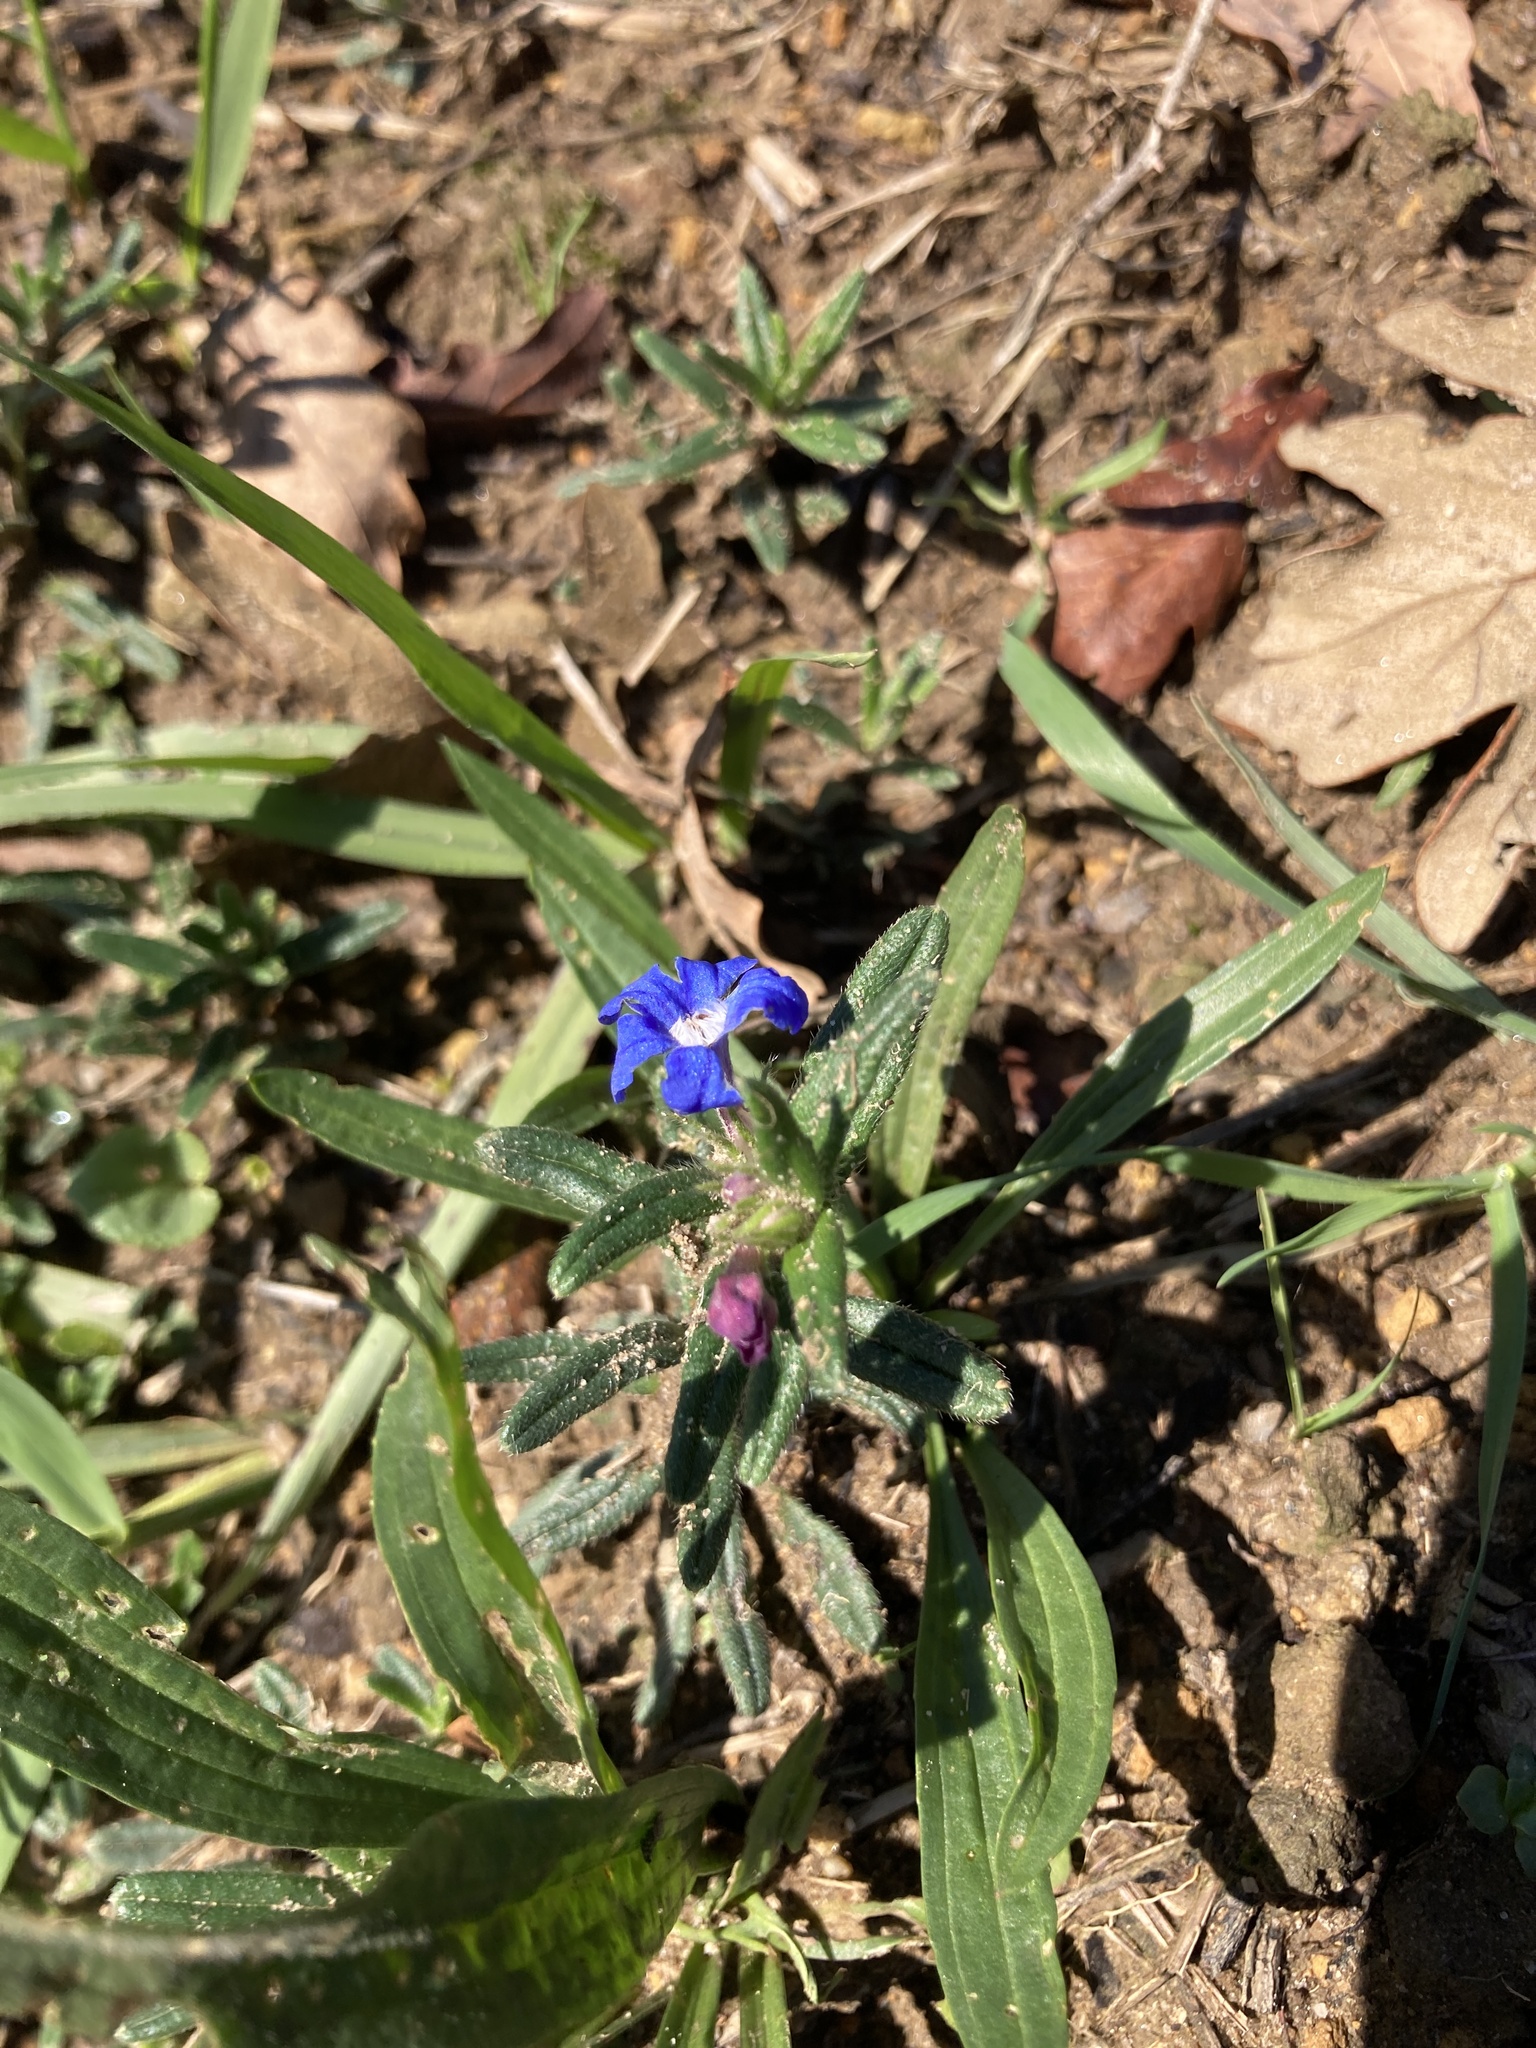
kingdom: Plantae
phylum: Tracheophyta
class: Magnoliopsida
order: Boraginales
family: Boraginaceae
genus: Glandora
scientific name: Glandora prostrata
